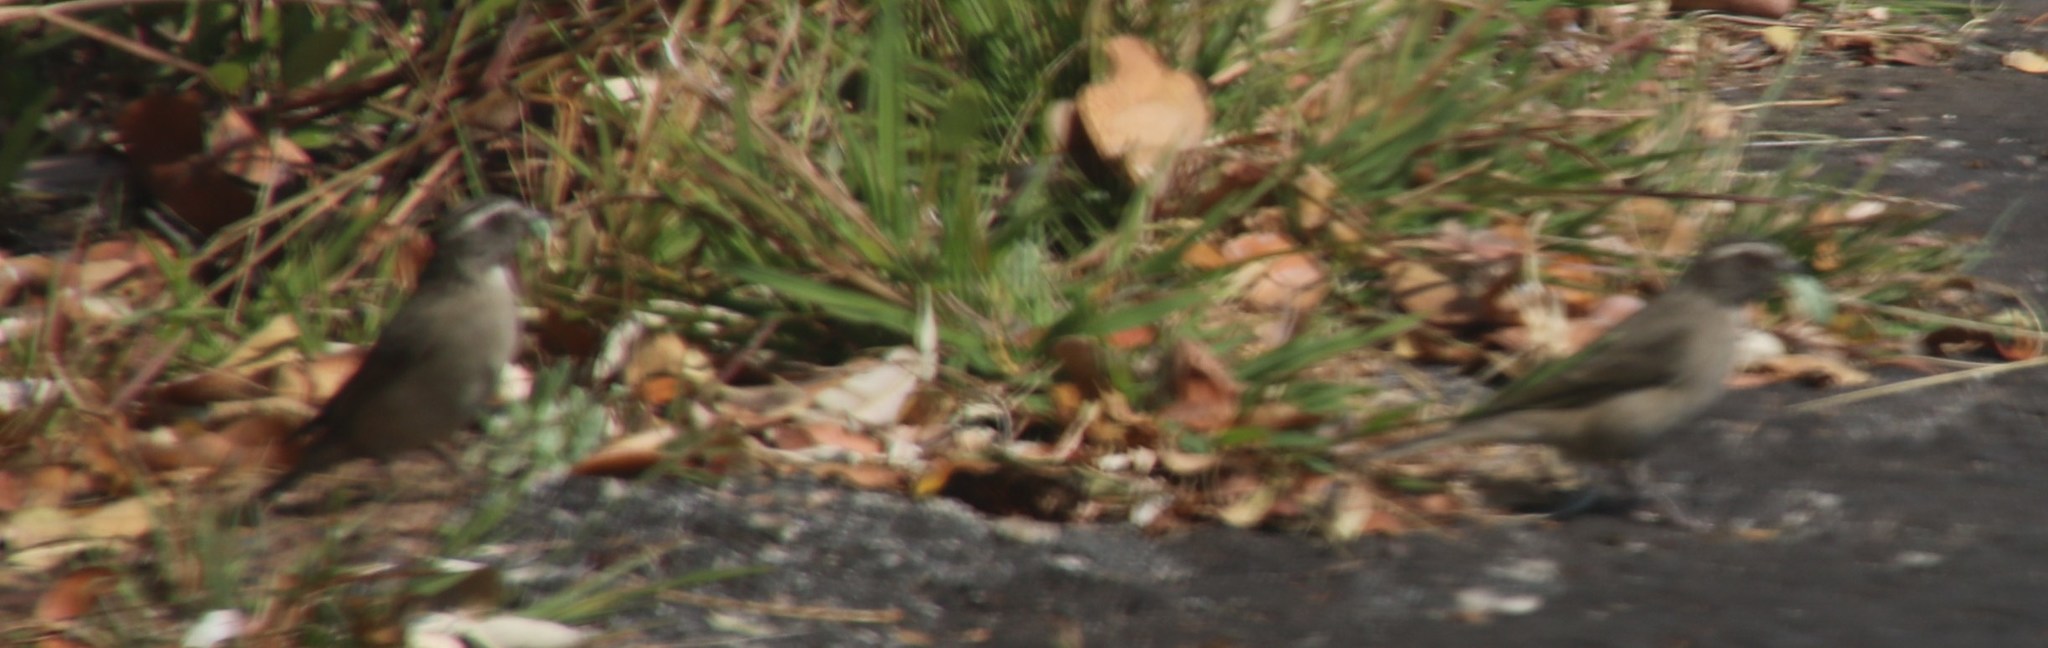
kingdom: Animalia
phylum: Chordata
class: Aves
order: Passeriformes
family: Fringillidae
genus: Crithagra
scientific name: Crithagra gularis
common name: Streaky-headed seedeater
